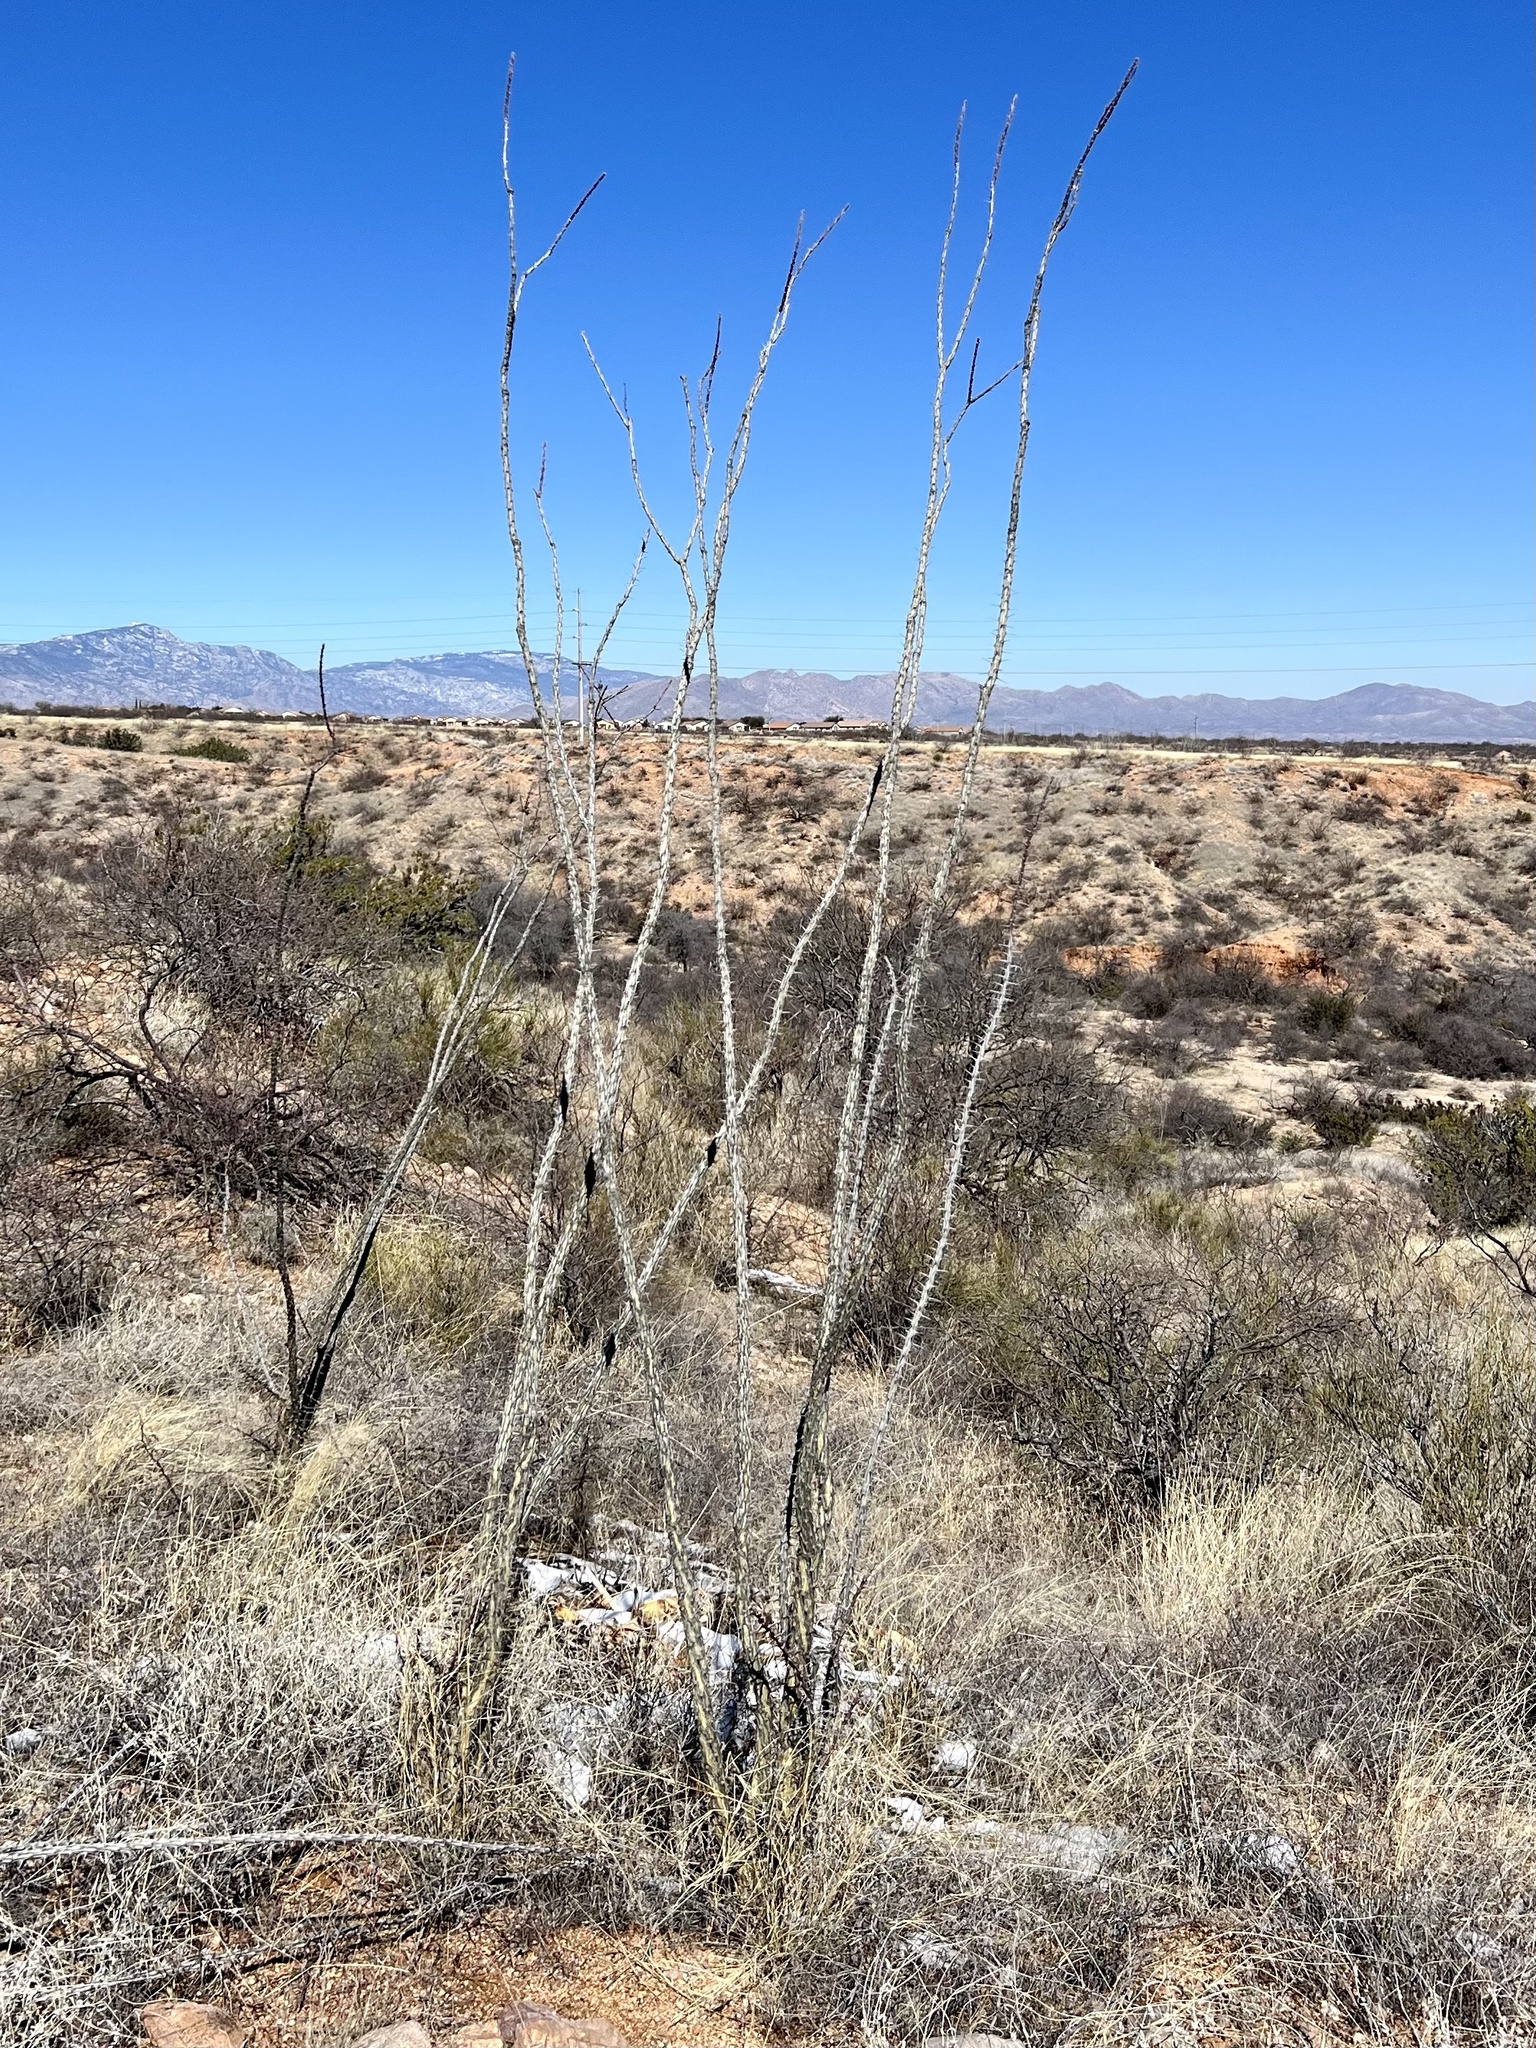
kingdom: Plantae
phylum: Tracheophyta
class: Magnoliopsida
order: Ericales
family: Fouquieriaceae
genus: Fouquieria
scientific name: Fouquieria splendens
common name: Vine-cactus
